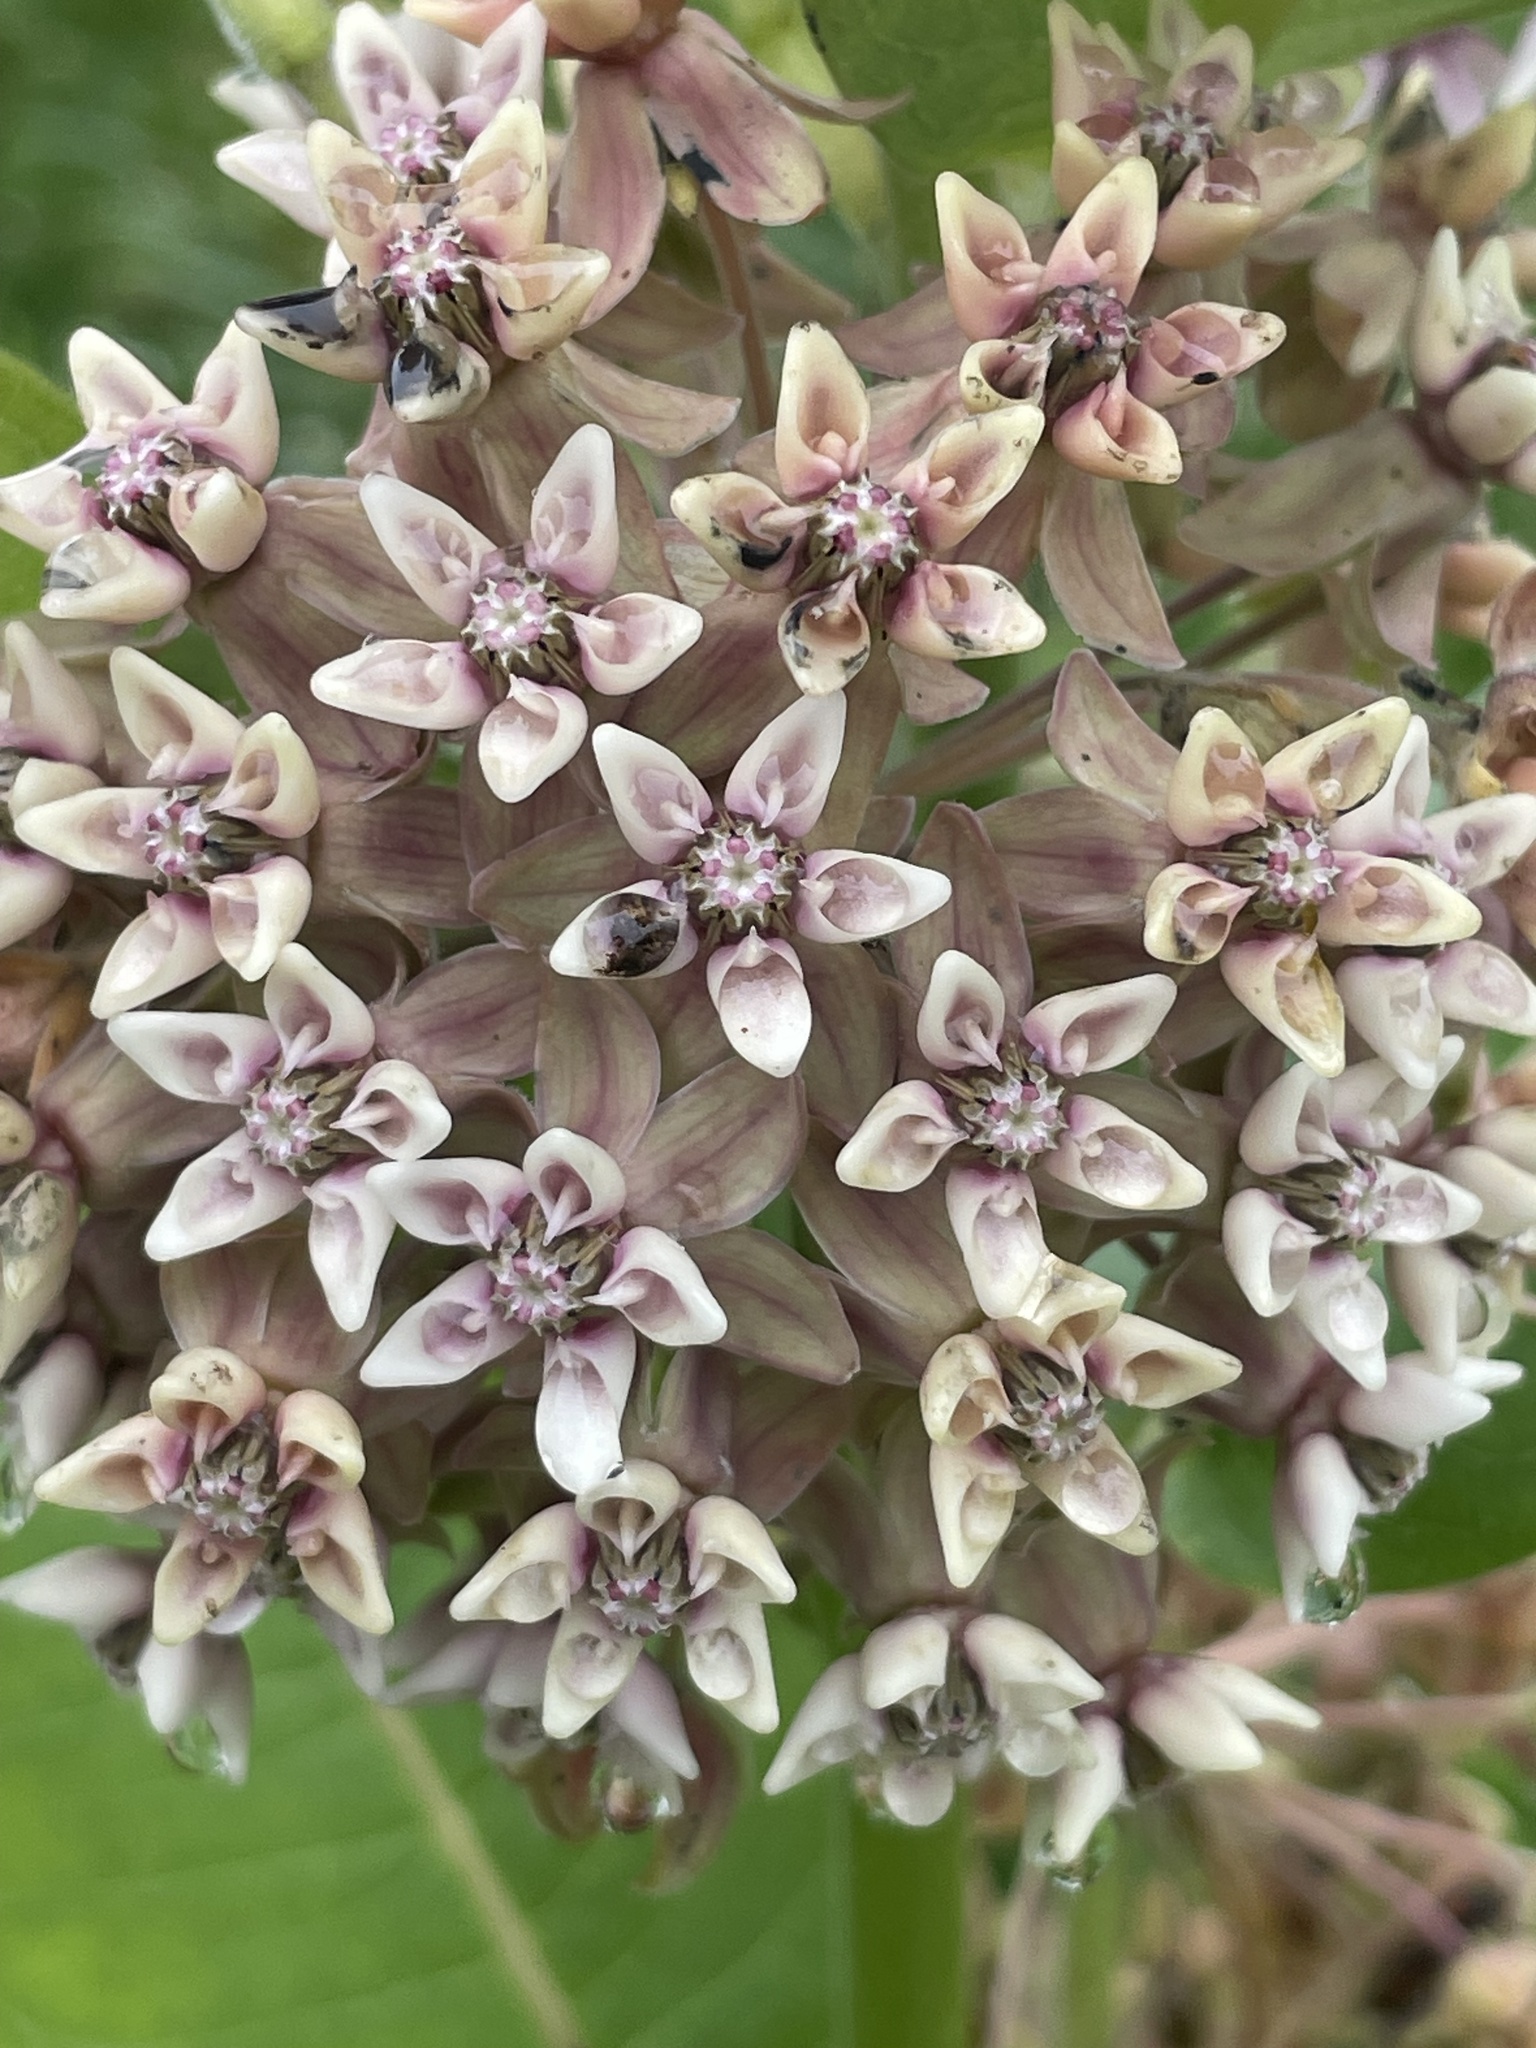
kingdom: Plantae
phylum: Tracheophyta
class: Magnoliopsida
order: Gentianales
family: Apocynaceae
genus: Asclepias
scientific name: Asclepias syriaca
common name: Common milkweed
